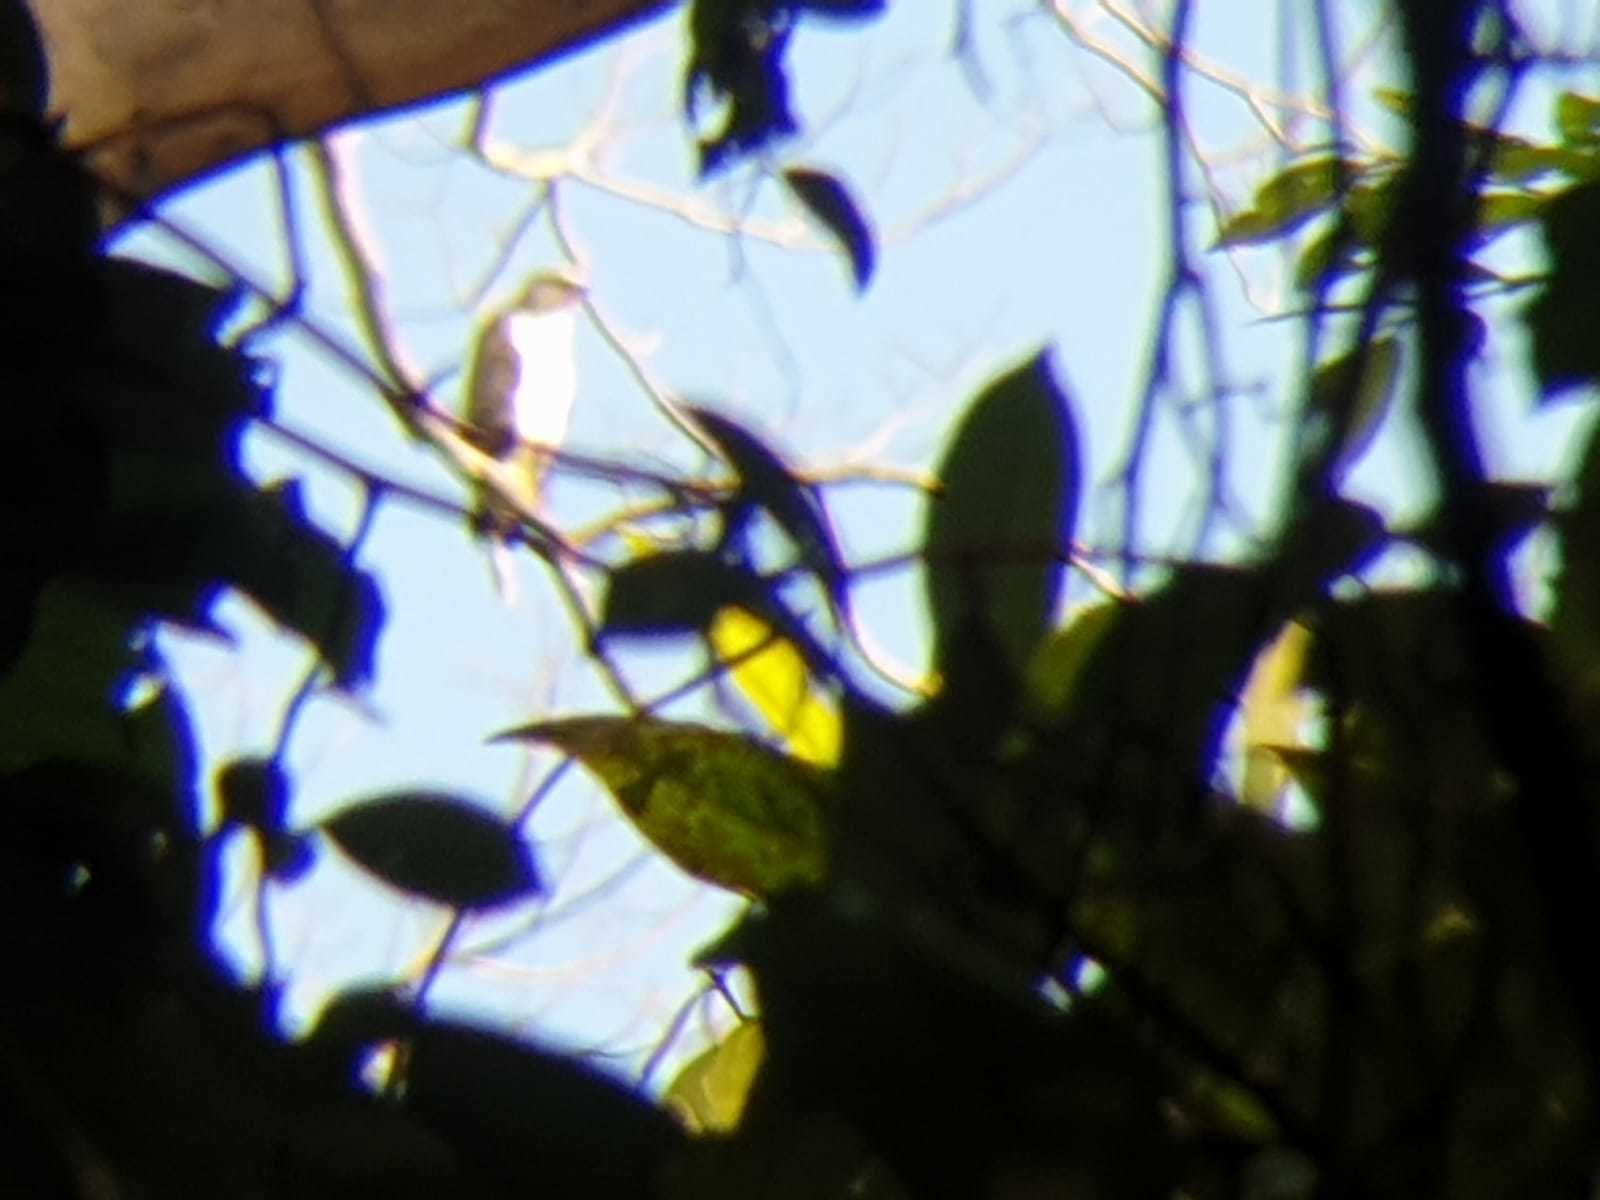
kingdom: Animalia
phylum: Chordata
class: Aves
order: Accipitriformes
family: Accipitridae
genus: Nisaetus
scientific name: Nisaetus cirrhatus
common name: Changeable hawk-eagle
